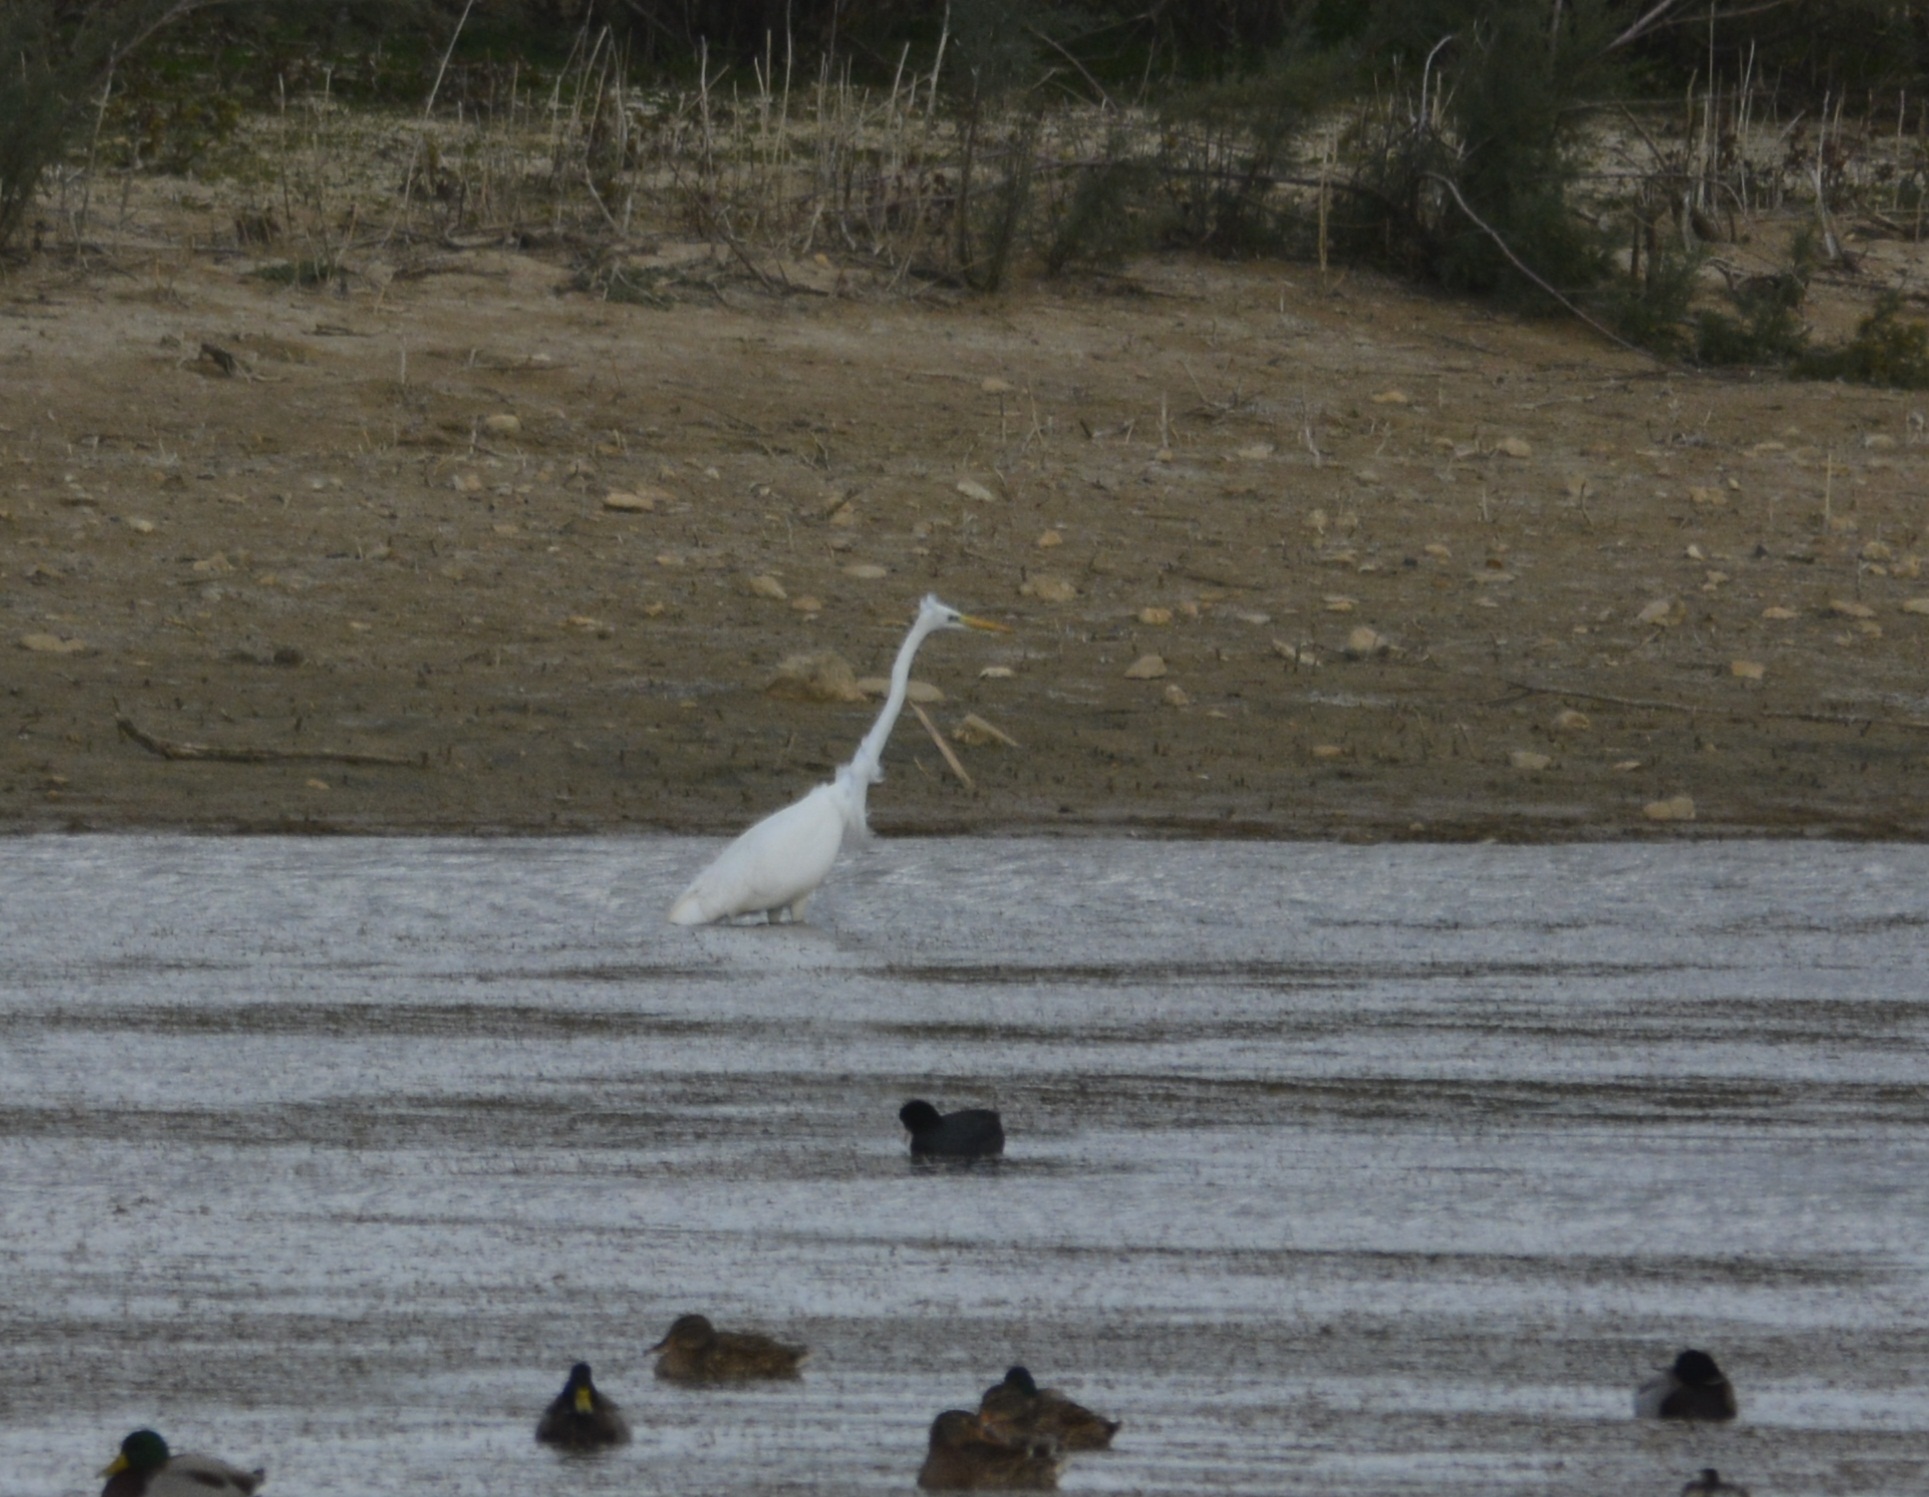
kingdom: Animalia
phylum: Chordata
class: Aves
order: Pelecaniformes
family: Ardeidae
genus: Ardea
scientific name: Ardea alba
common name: Great egret
